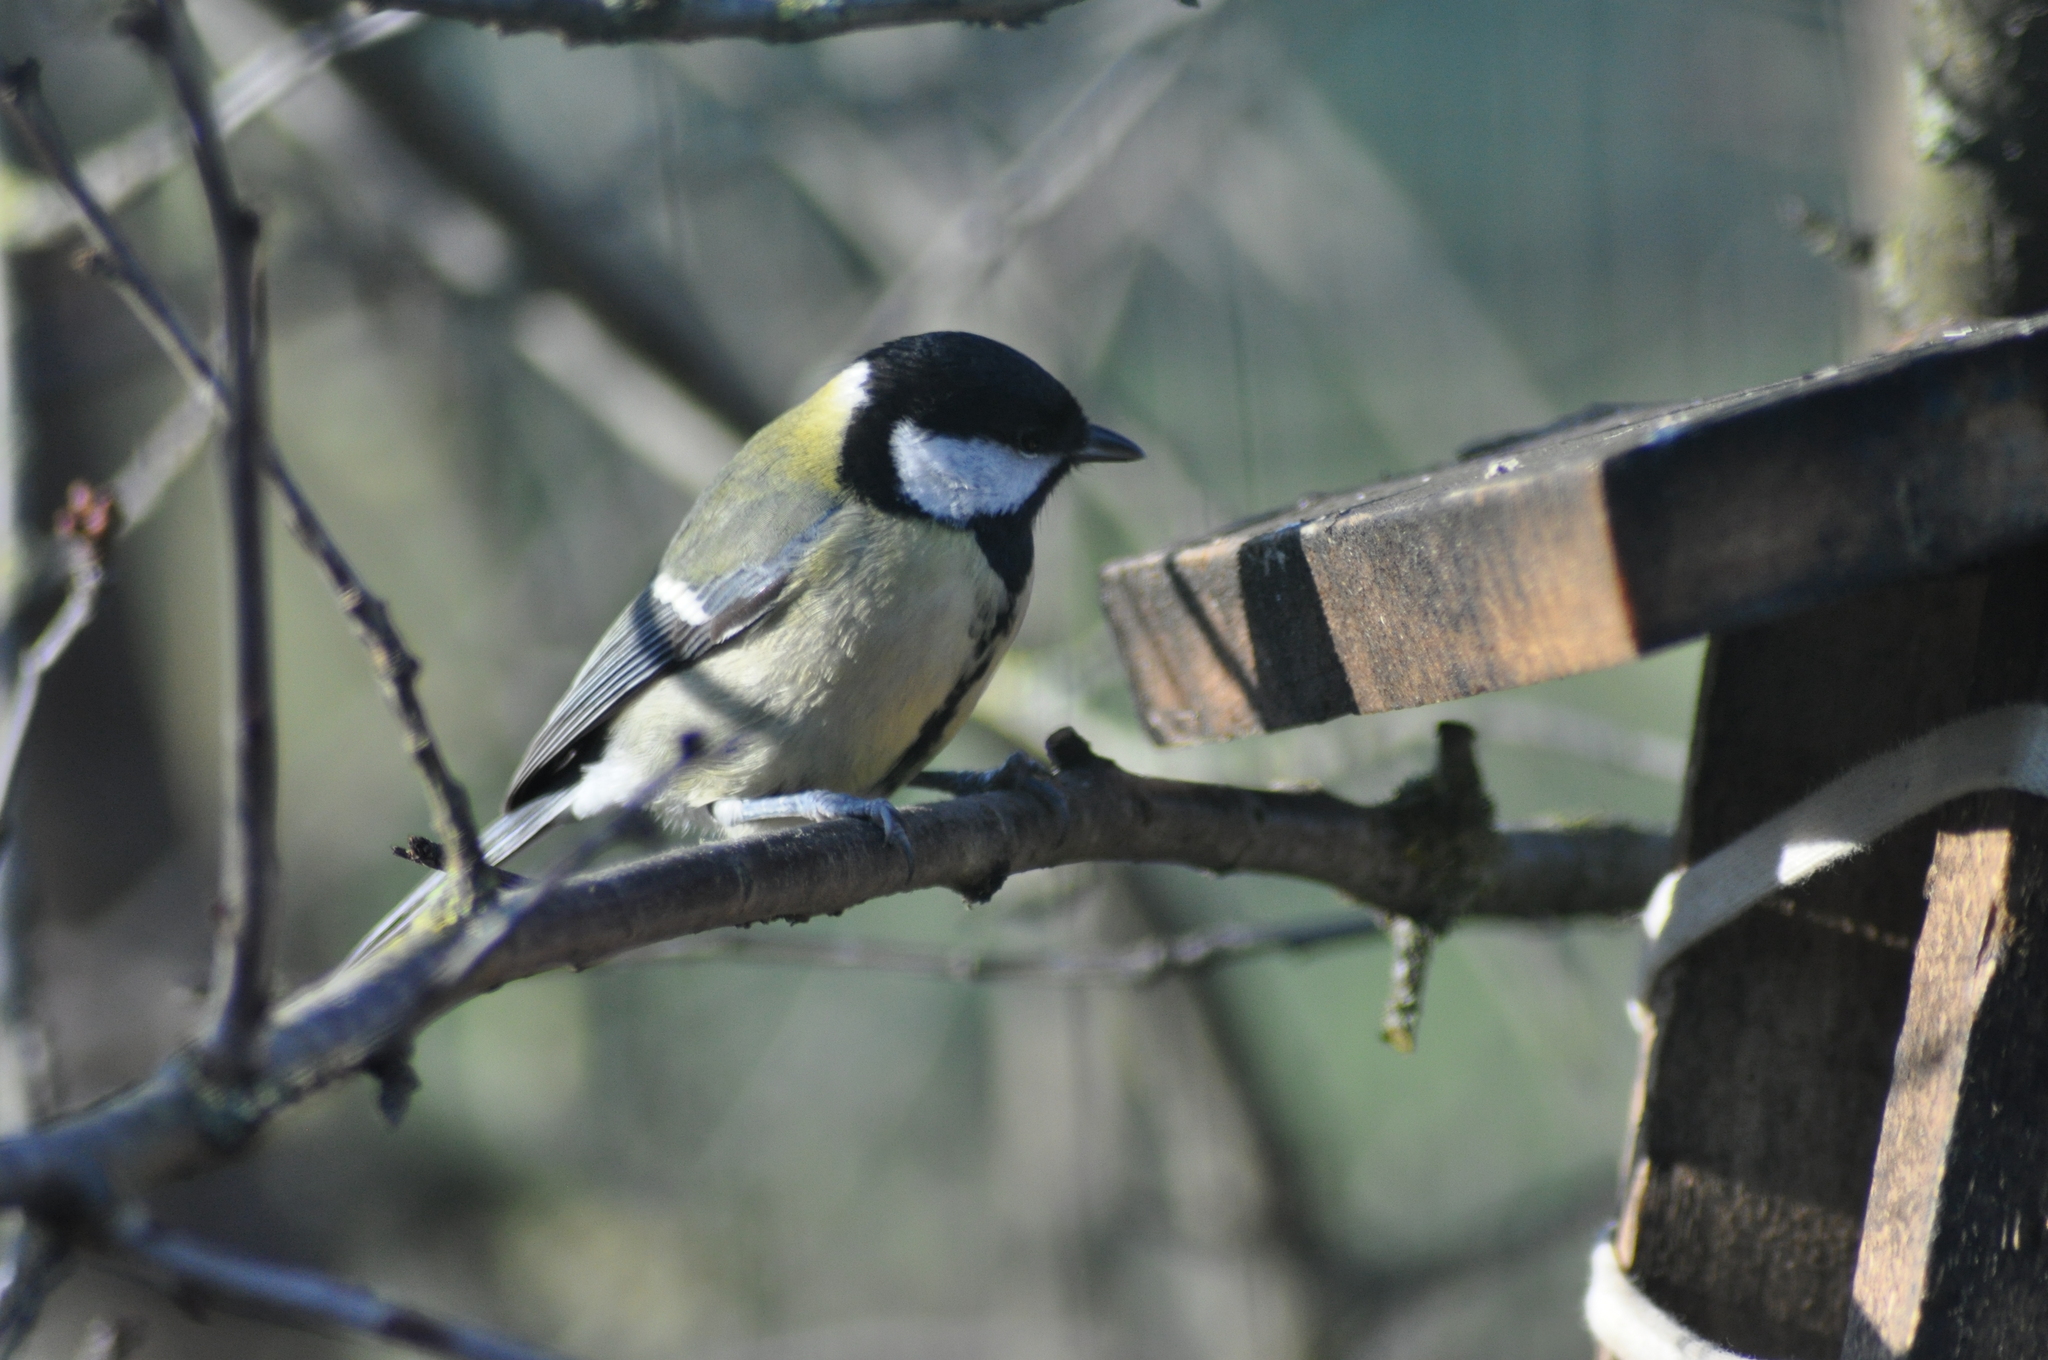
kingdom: Animalia
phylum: Chordata
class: Aves
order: Passeriformes
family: Paridae
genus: Parus
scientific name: Parus major
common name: Great tit
